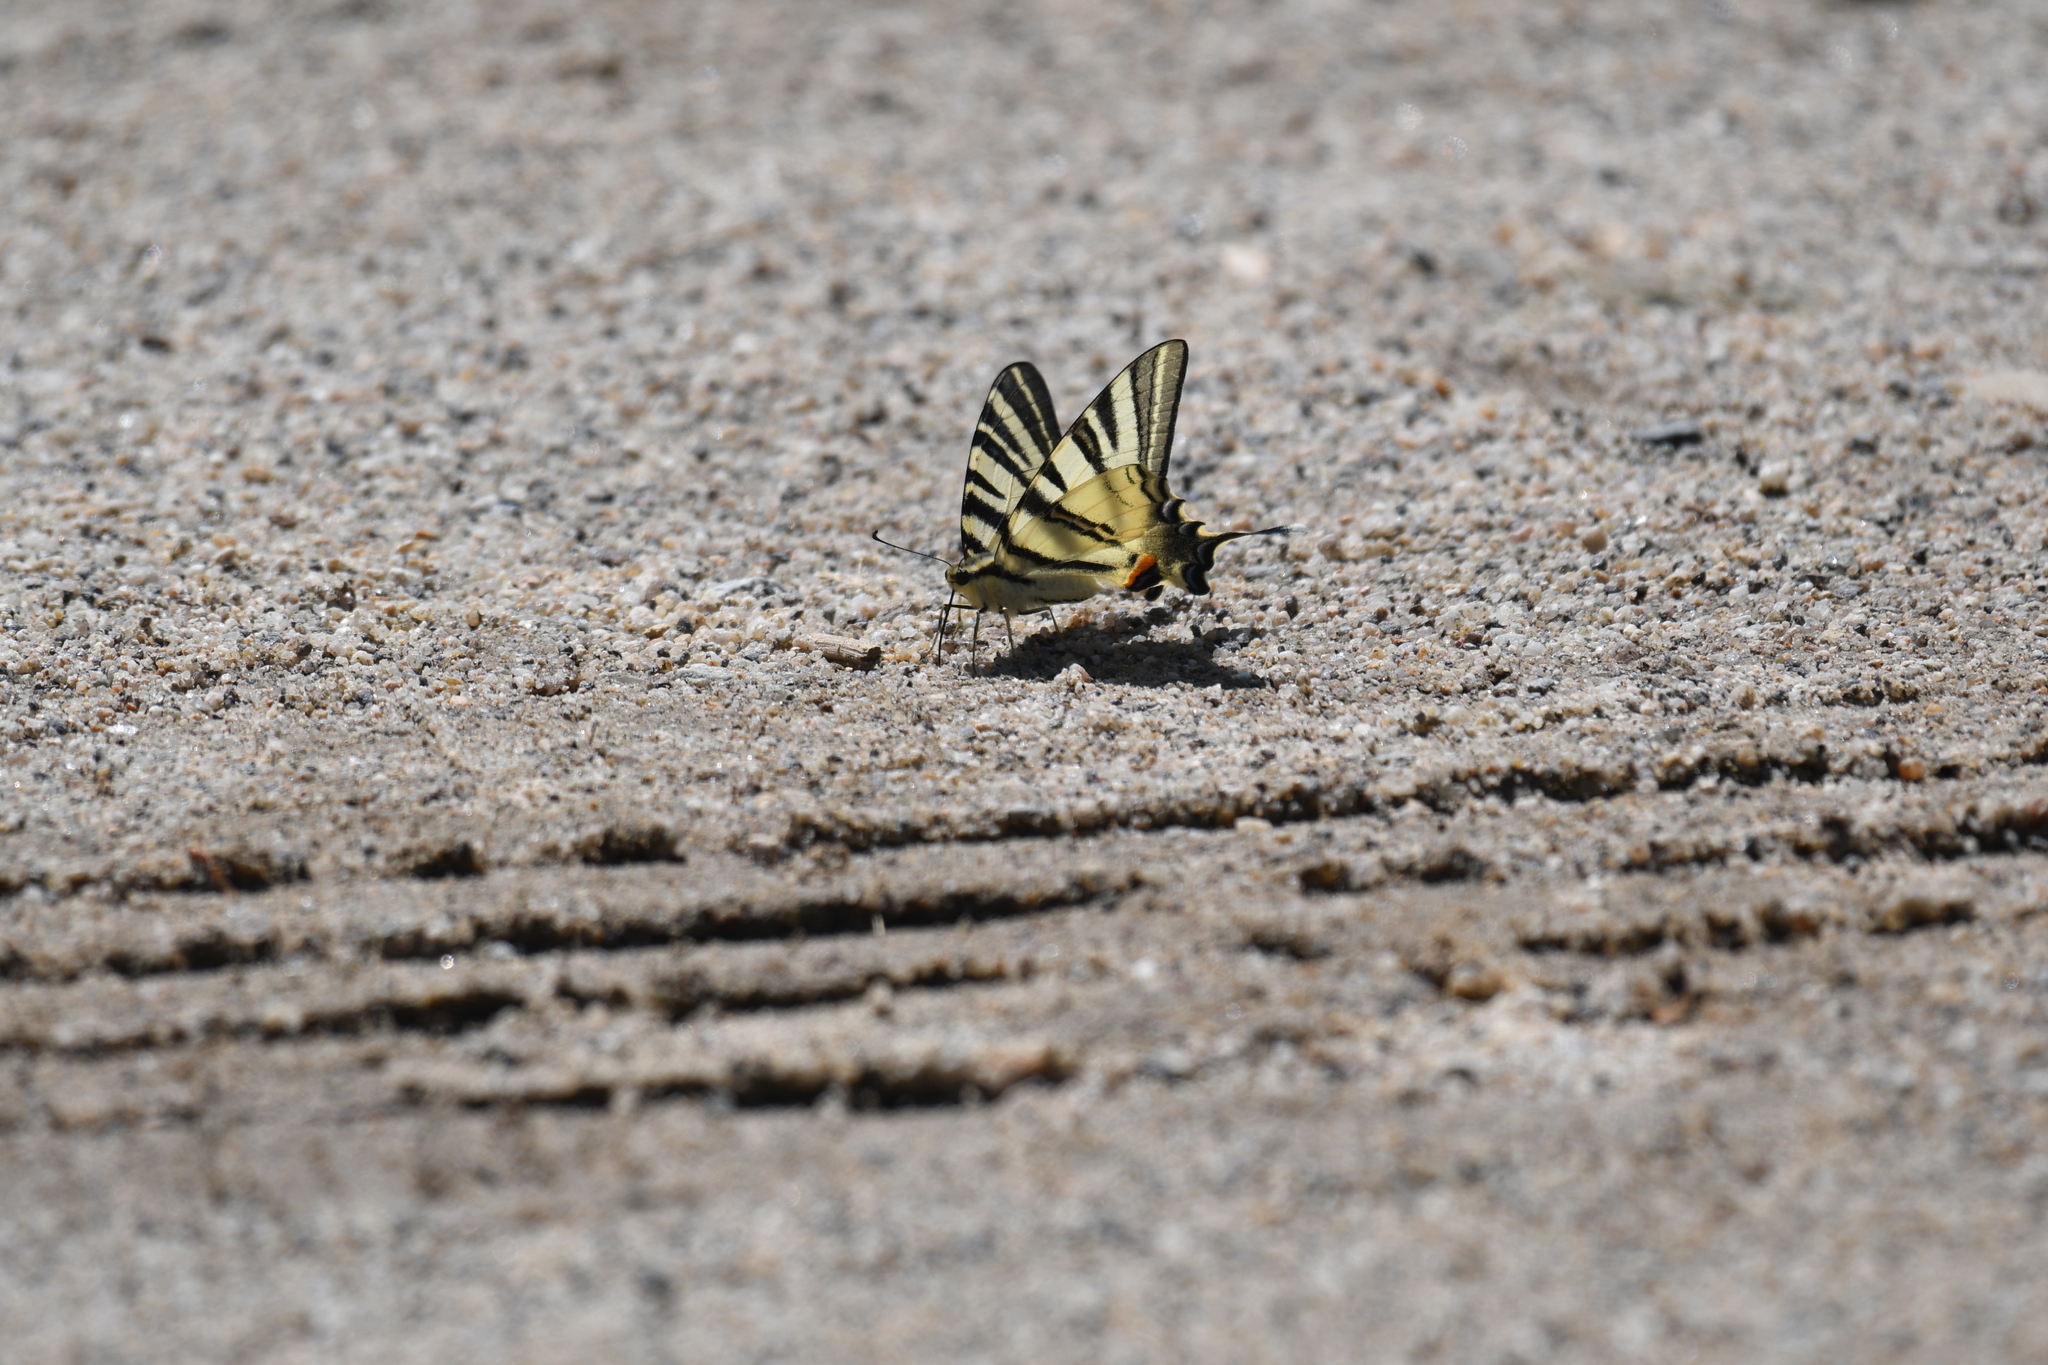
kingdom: Animalia
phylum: Arthropoda
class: Insecta
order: Lepidoptera
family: Papilionidae
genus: Iphiclides
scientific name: Iphiclides podalirius
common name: Scarce swallowtail
